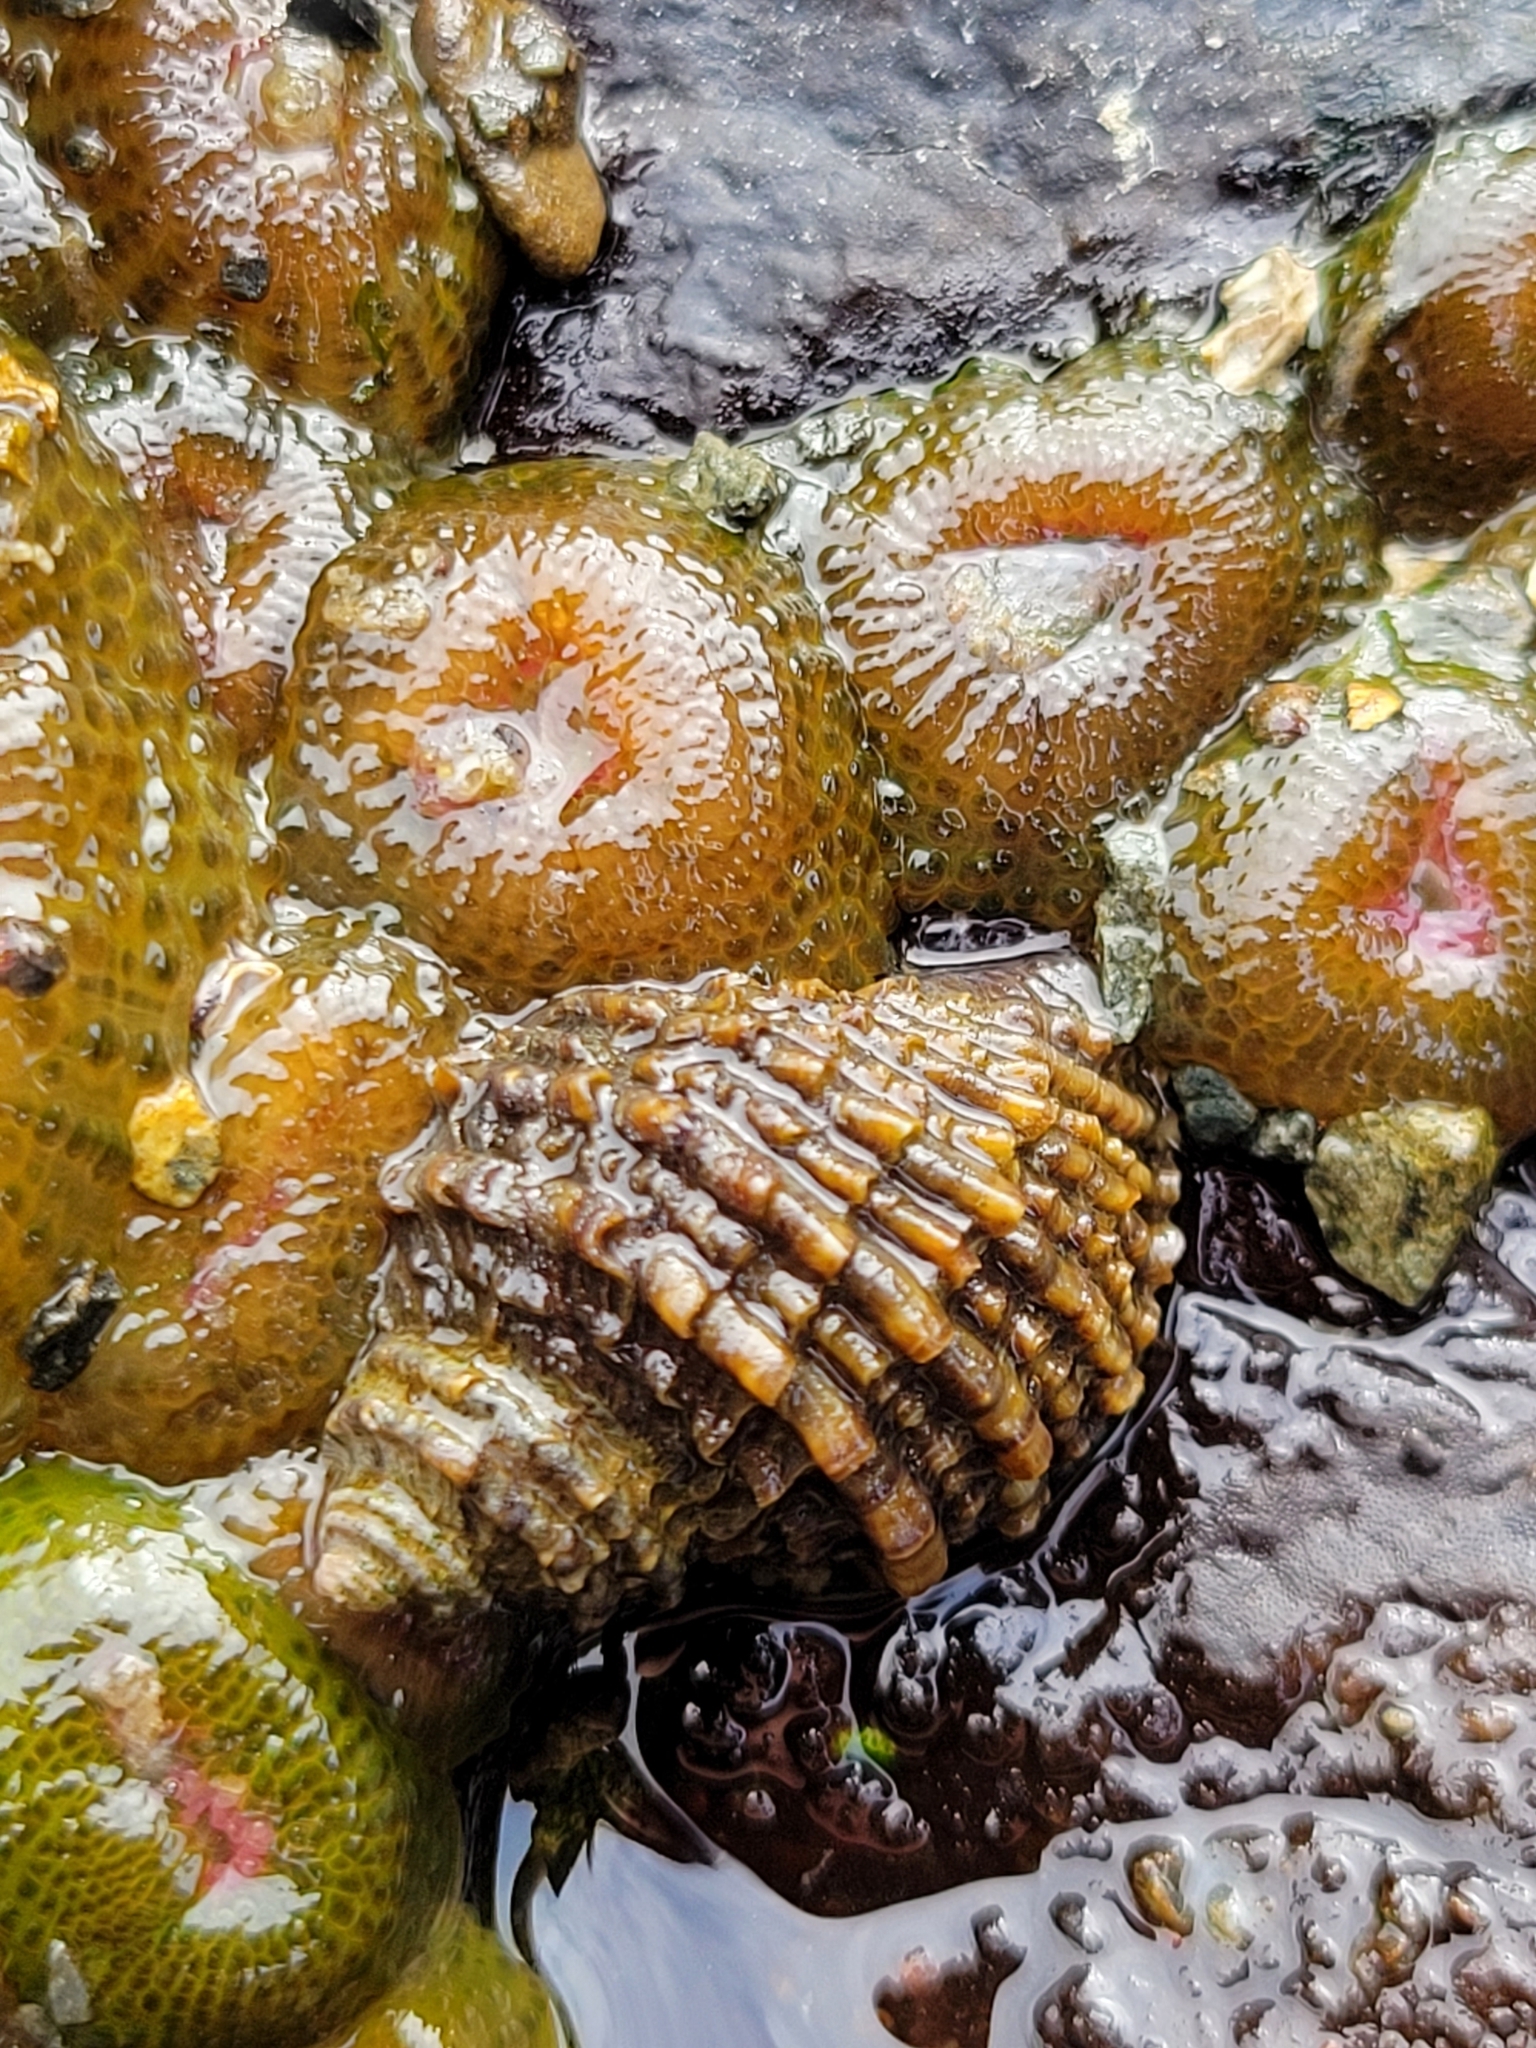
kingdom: Animalia
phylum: Mollusca
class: Gastropoda
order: Neogastropoda
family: Muricidae
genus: Nucella
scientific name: Nucella ostrina
